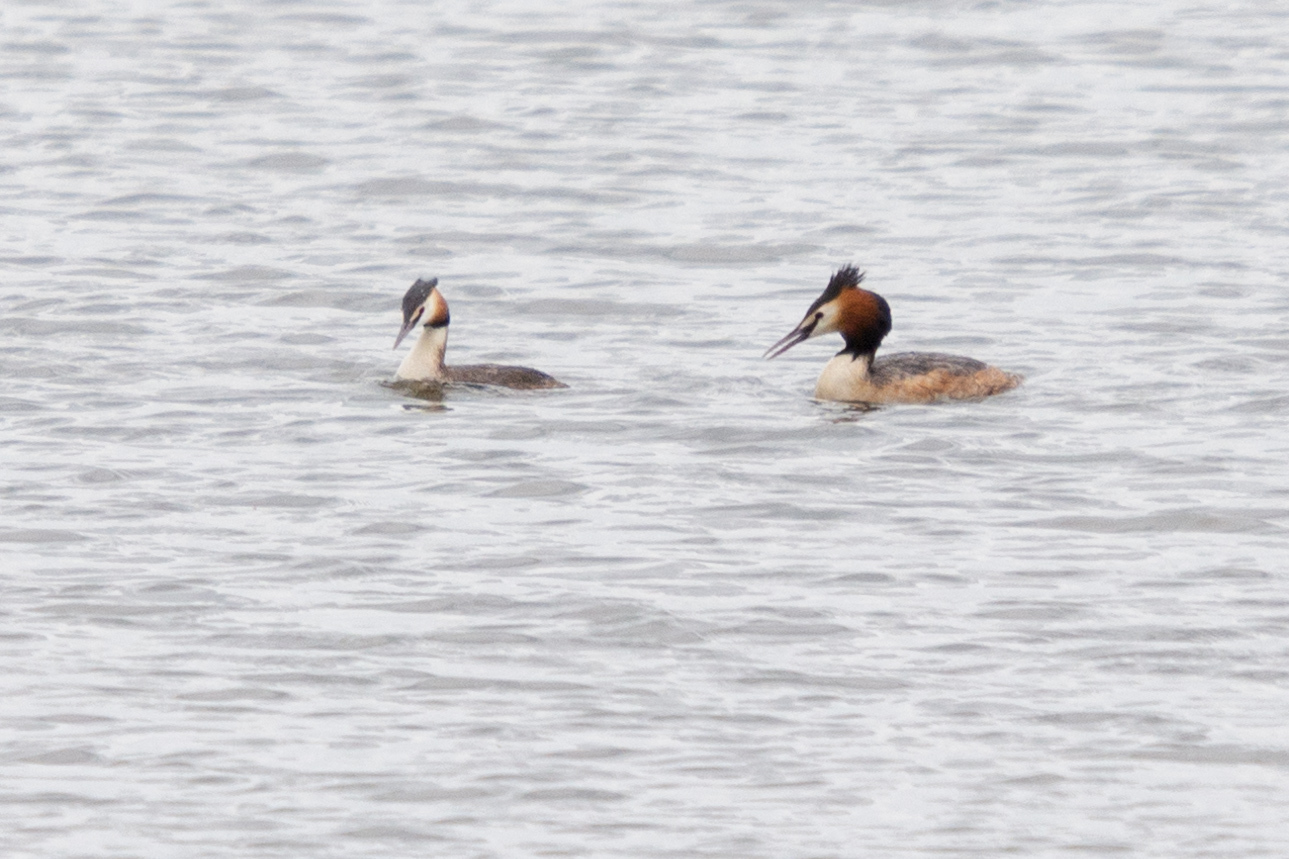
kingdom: Animalia
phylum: Chordata
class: Aves
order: Podicipediformes
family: Podicipedidae
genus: Podiceps
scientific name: Podiceps cristatus
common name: Great crested grebe
